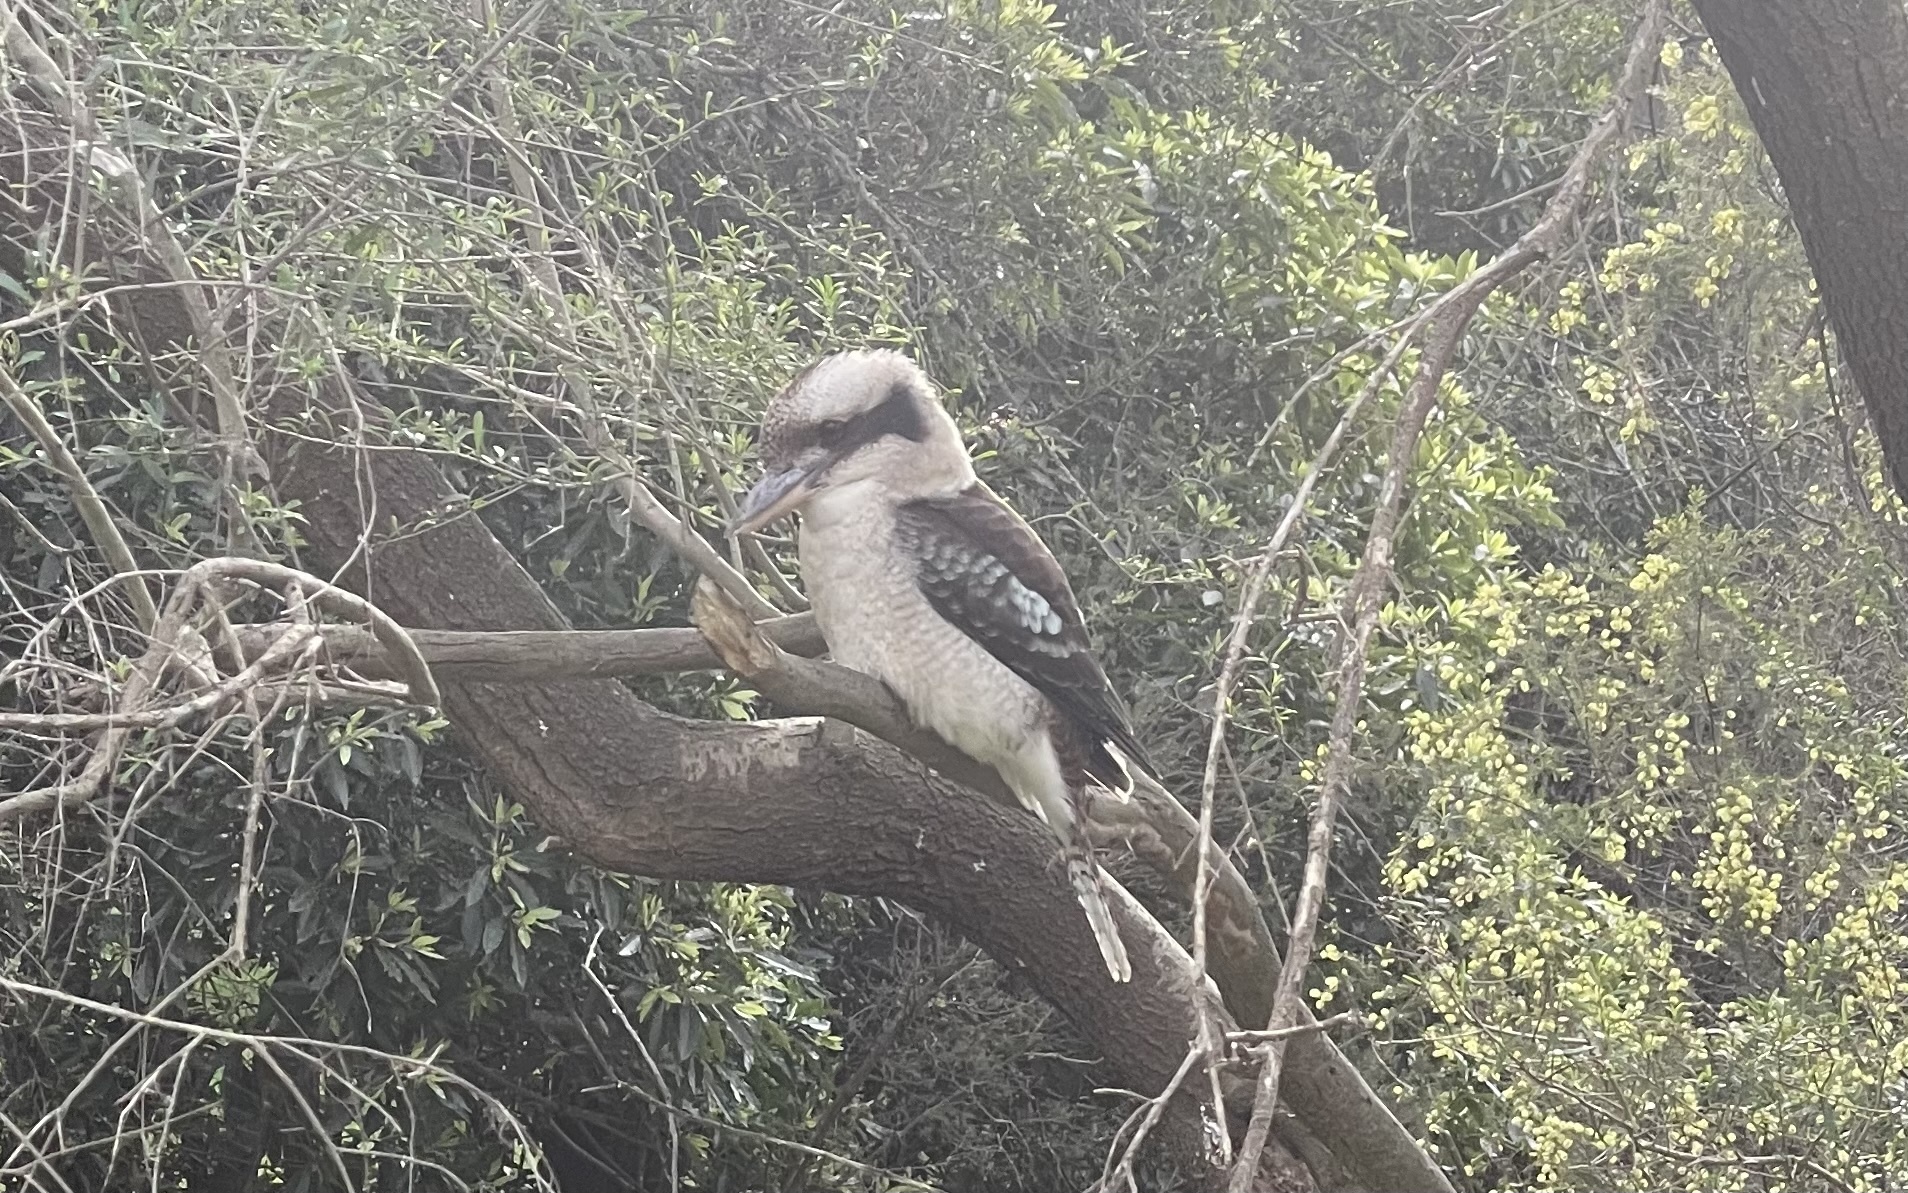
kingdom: Animalia
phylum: Chordata
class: Aves
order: Coraciiformes
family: Alcedinidae
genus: Dacelo
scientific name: Dacelo novaeguineae
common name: Laughing kookaburra
